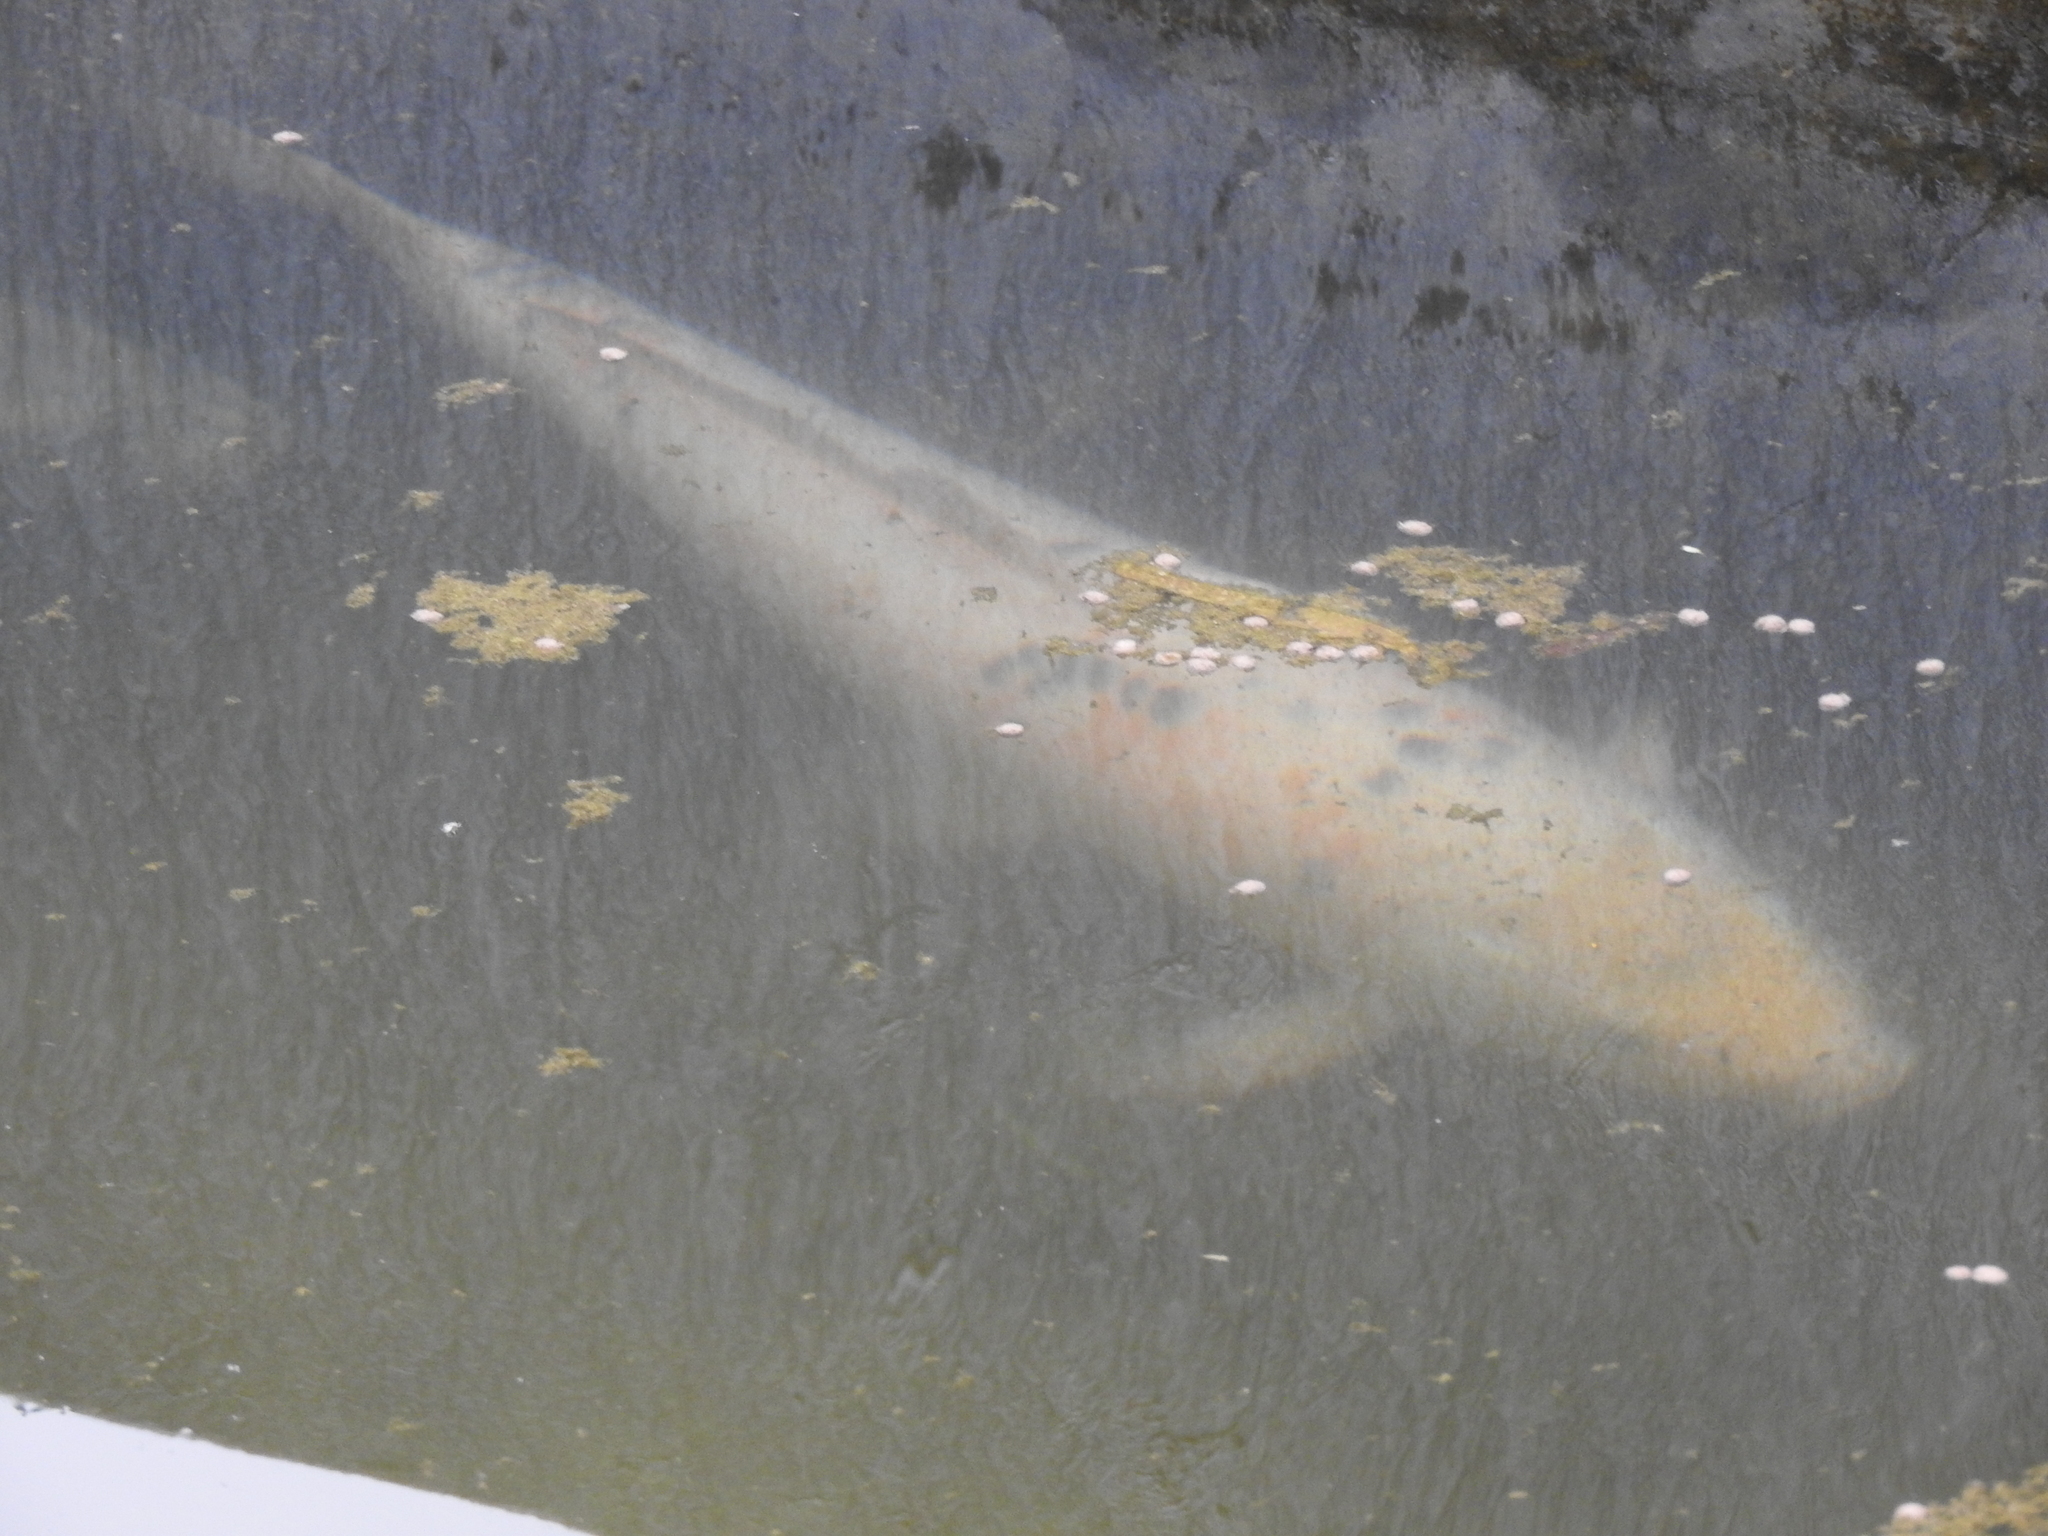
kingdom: Animalia
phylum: Chordata
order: Cypriniformes
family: Cyprinidae
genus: Cyprinus
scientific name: Cyprinus rubrofuscus
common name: Koi
